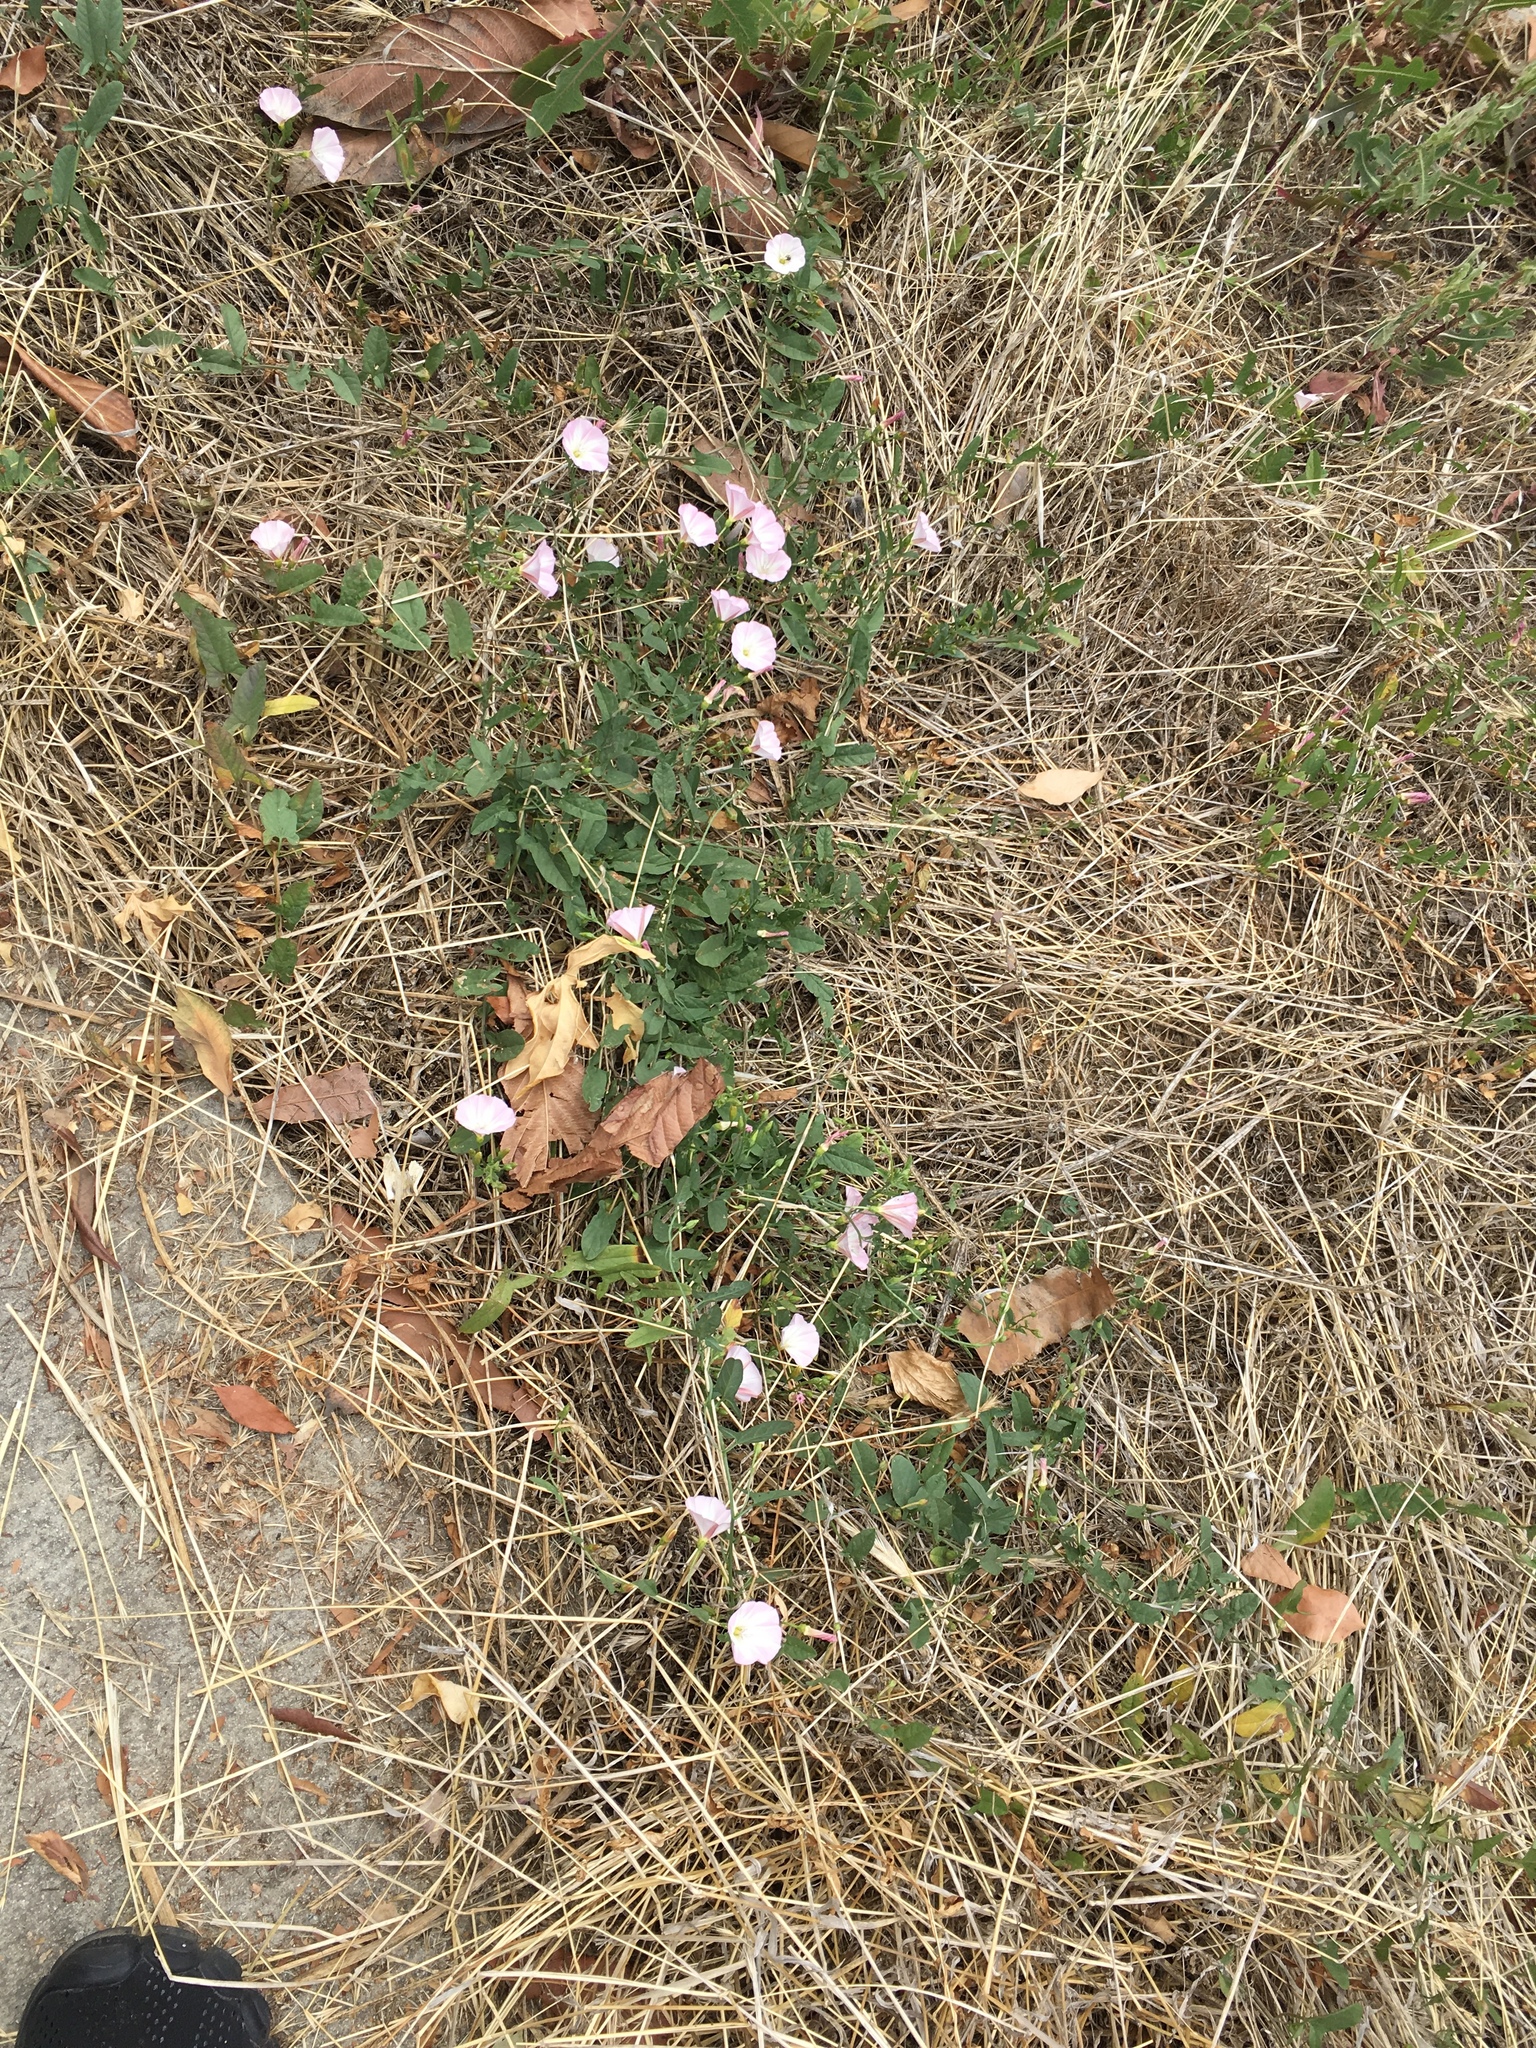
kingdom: Plantae
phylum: Tracheophyta
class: Magnoliopsida
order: Solanales
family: Convolvulaceae
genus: Convolvulus
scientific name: Convolvulus arvensis
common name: Field bindweed
